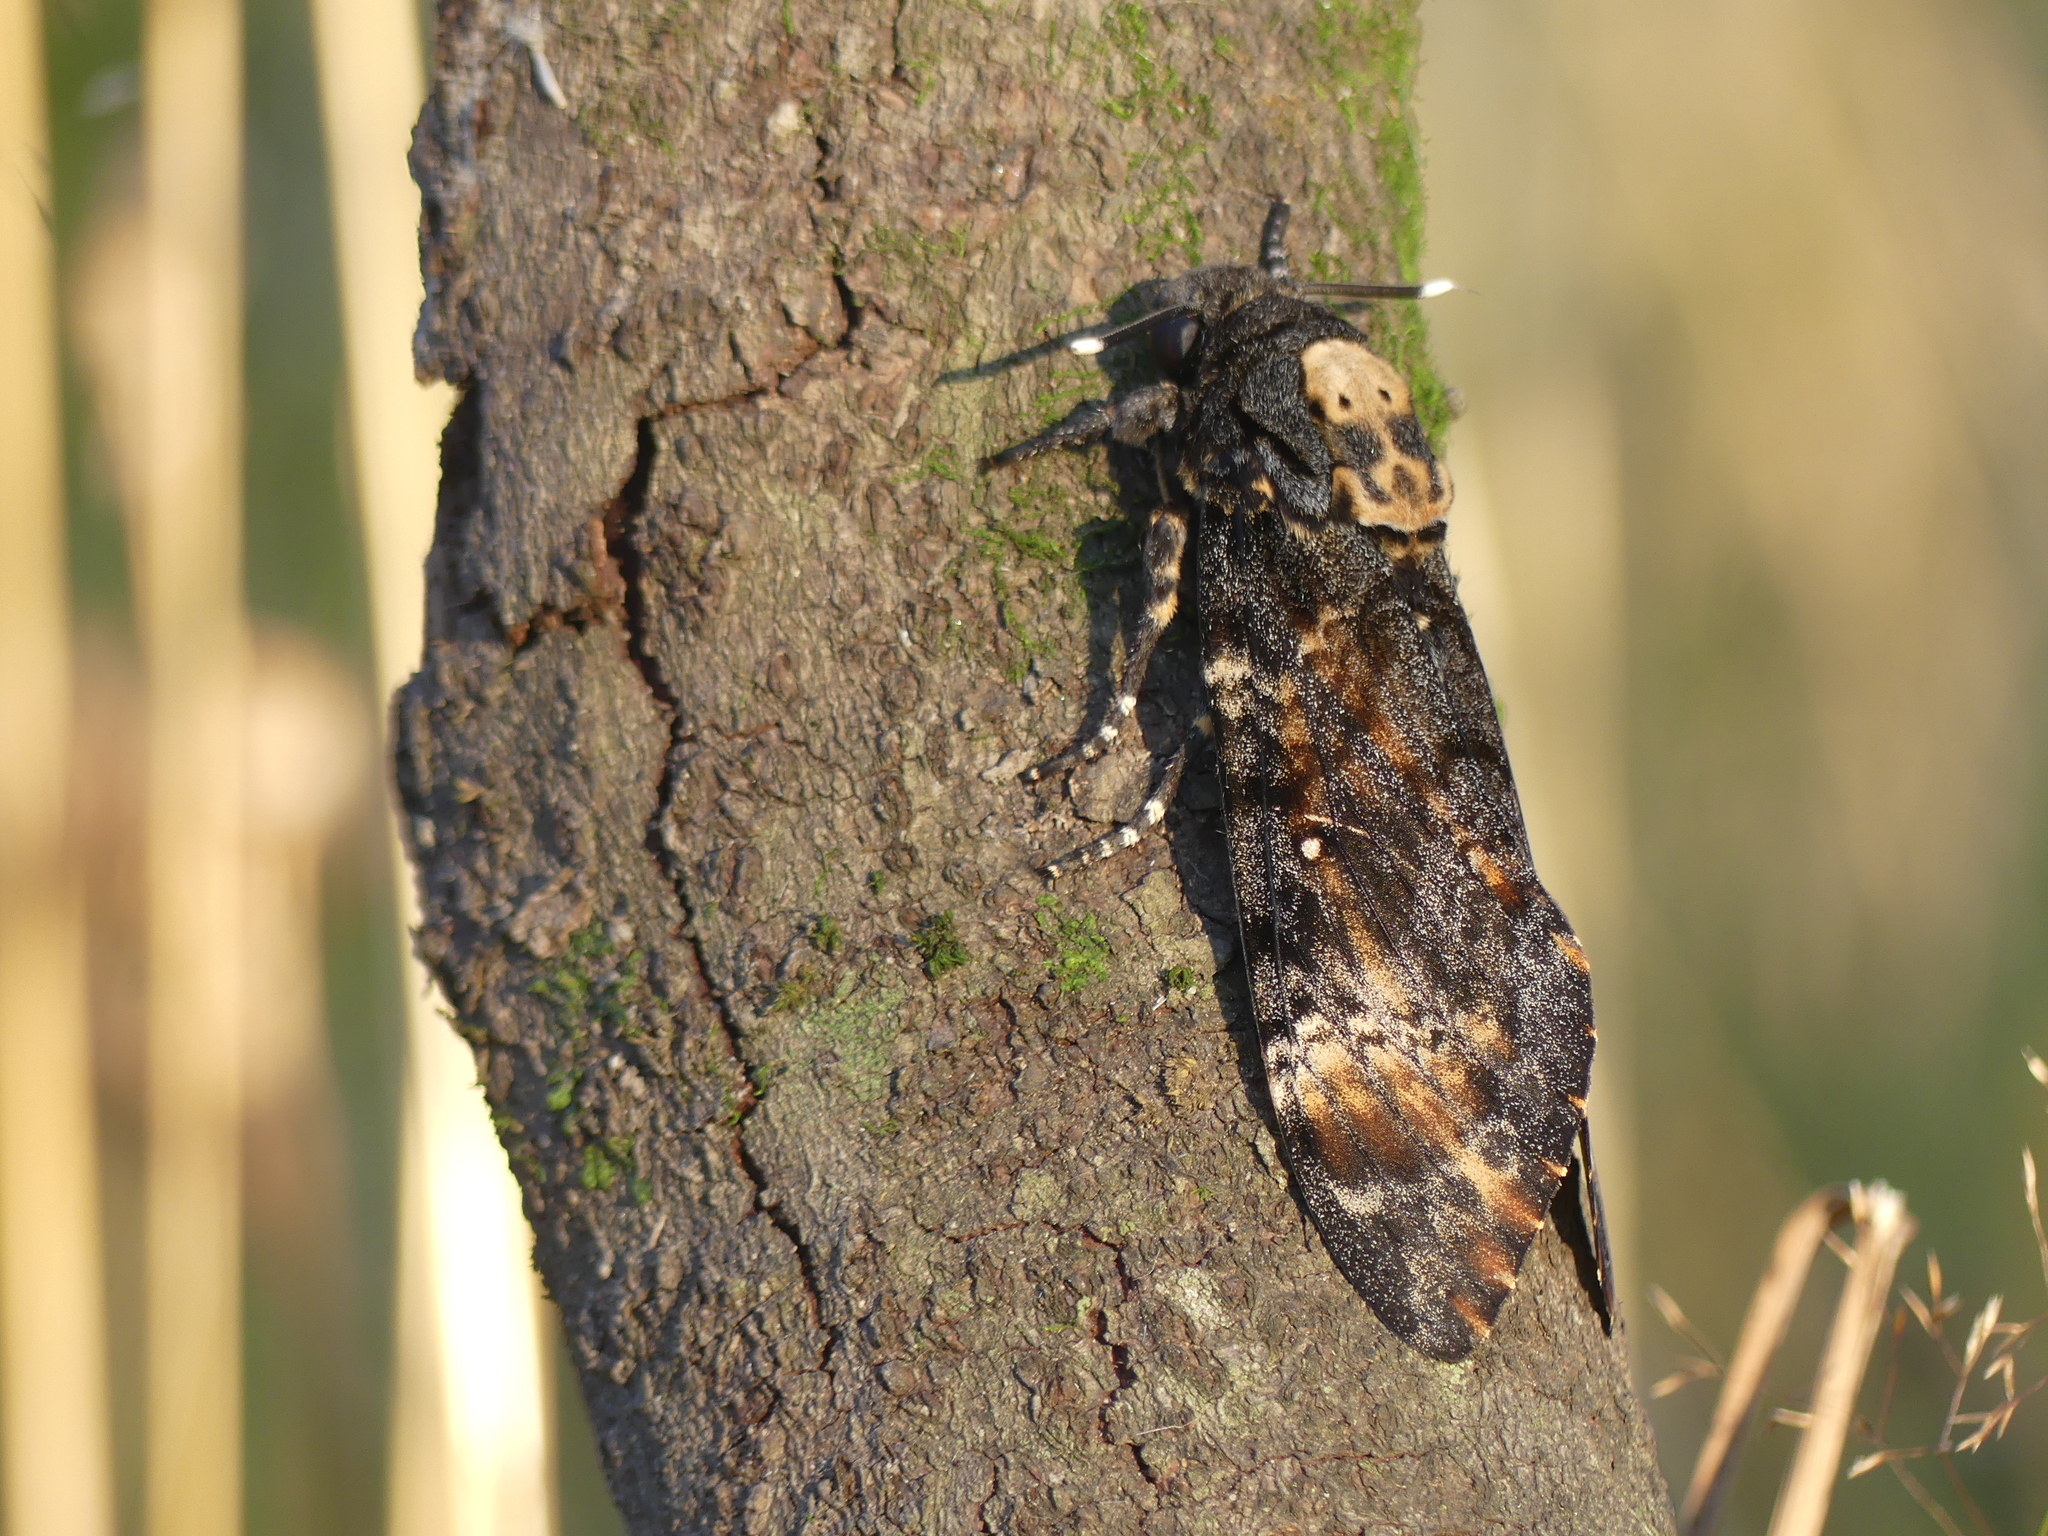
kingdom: Animalia
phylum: Arthropoda
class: Insecta
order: Lepidoptera
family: Sphingidae
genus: Acherontia
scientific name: Acherontia atropos
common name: Death's-head hawk moth
